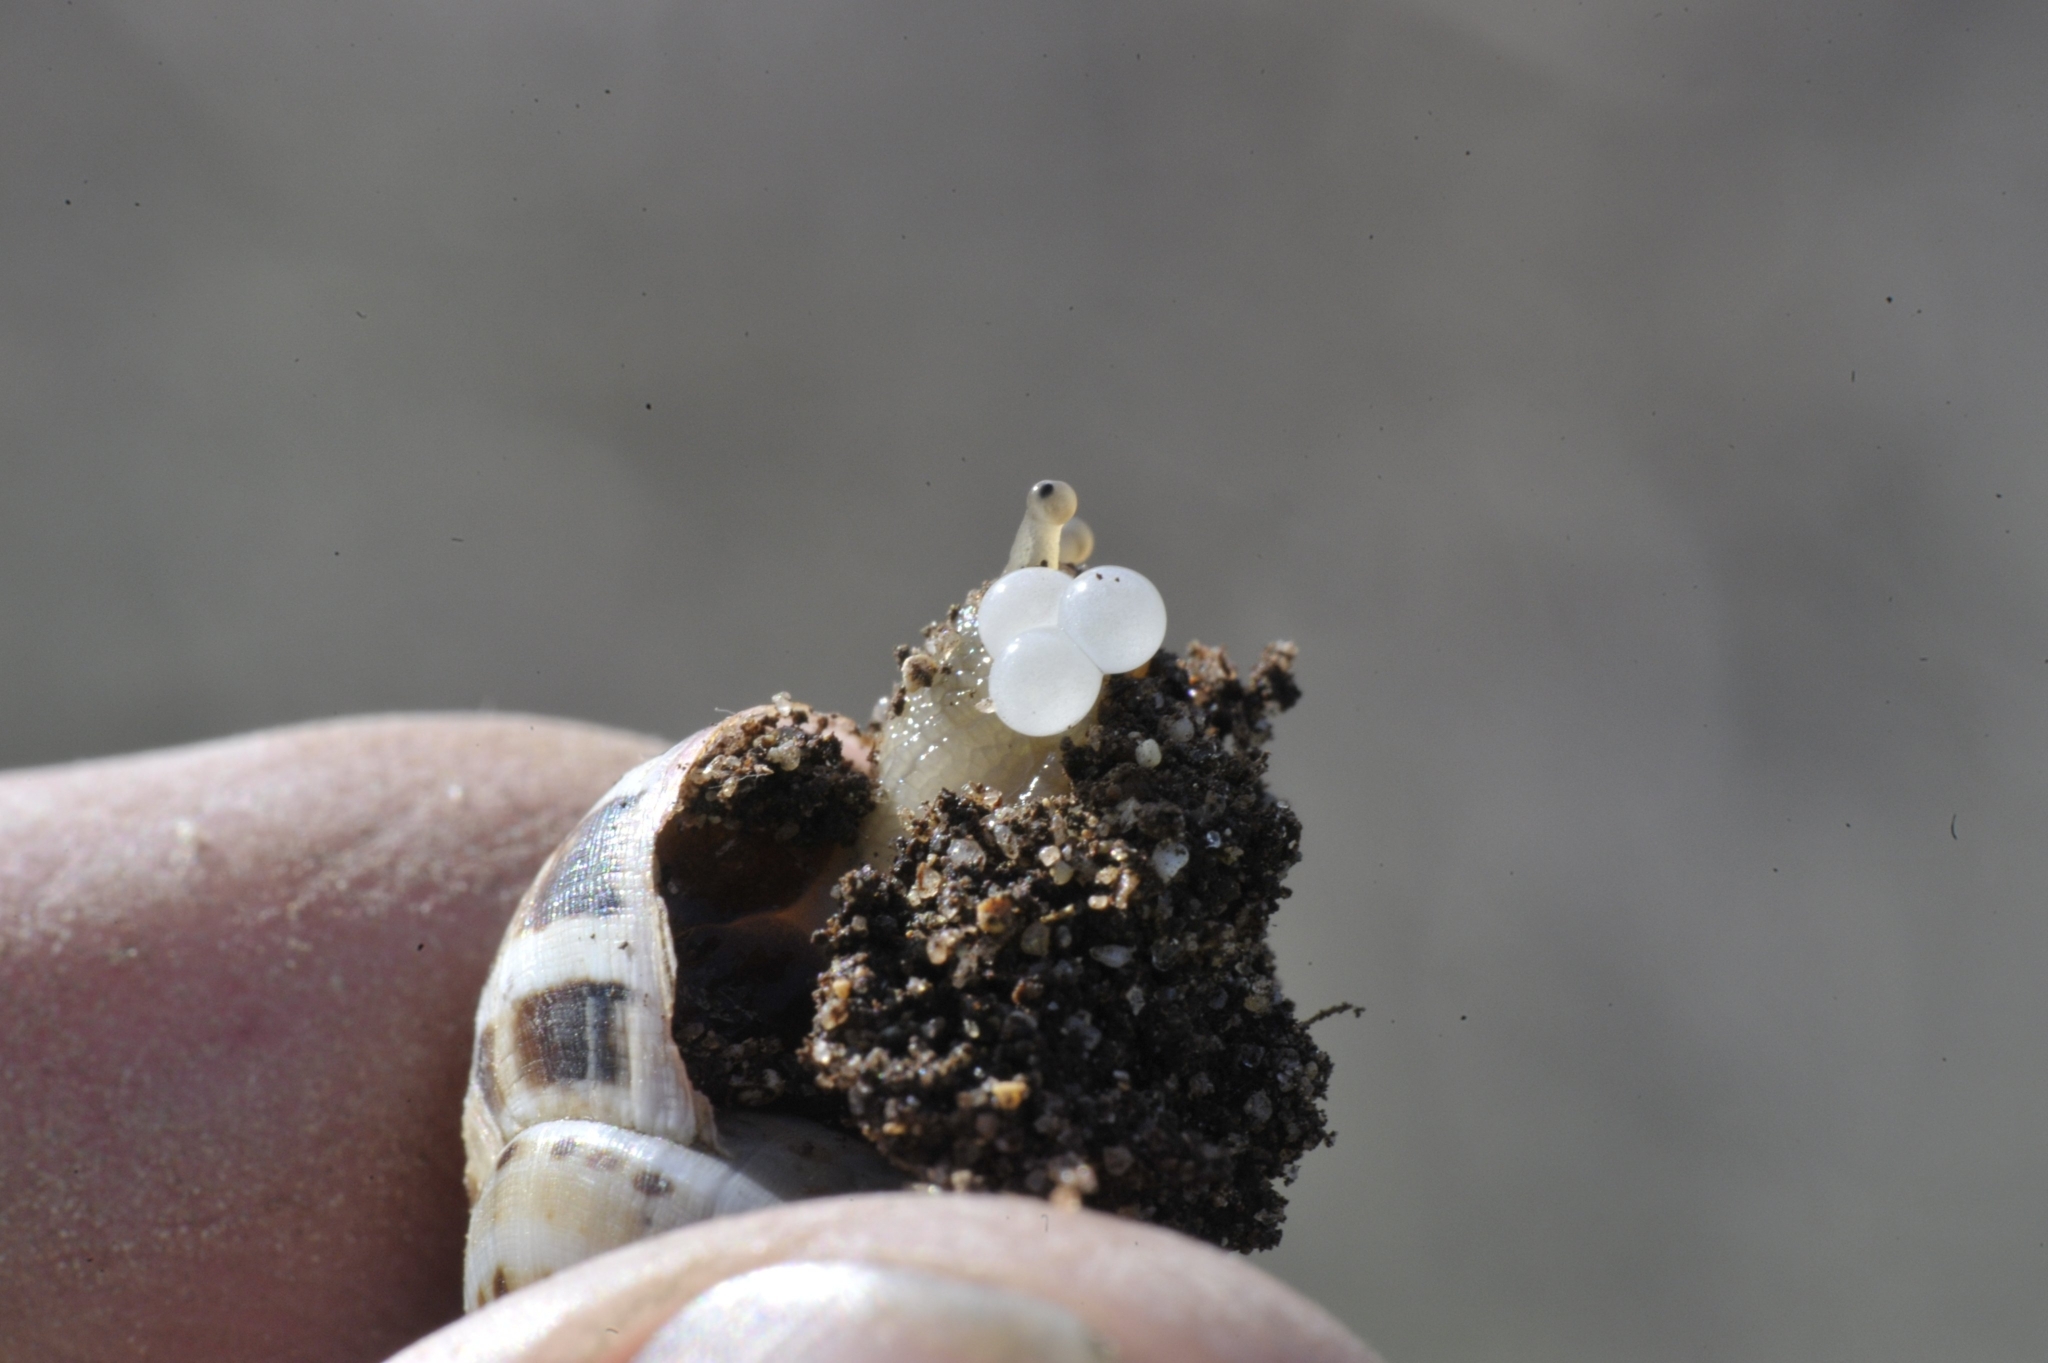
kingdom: Animalia
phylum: Mollusca
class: Gastropoda
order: Stylommatophora
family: Helicidae
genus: Theba
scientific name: Theba pisana
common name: White snail
